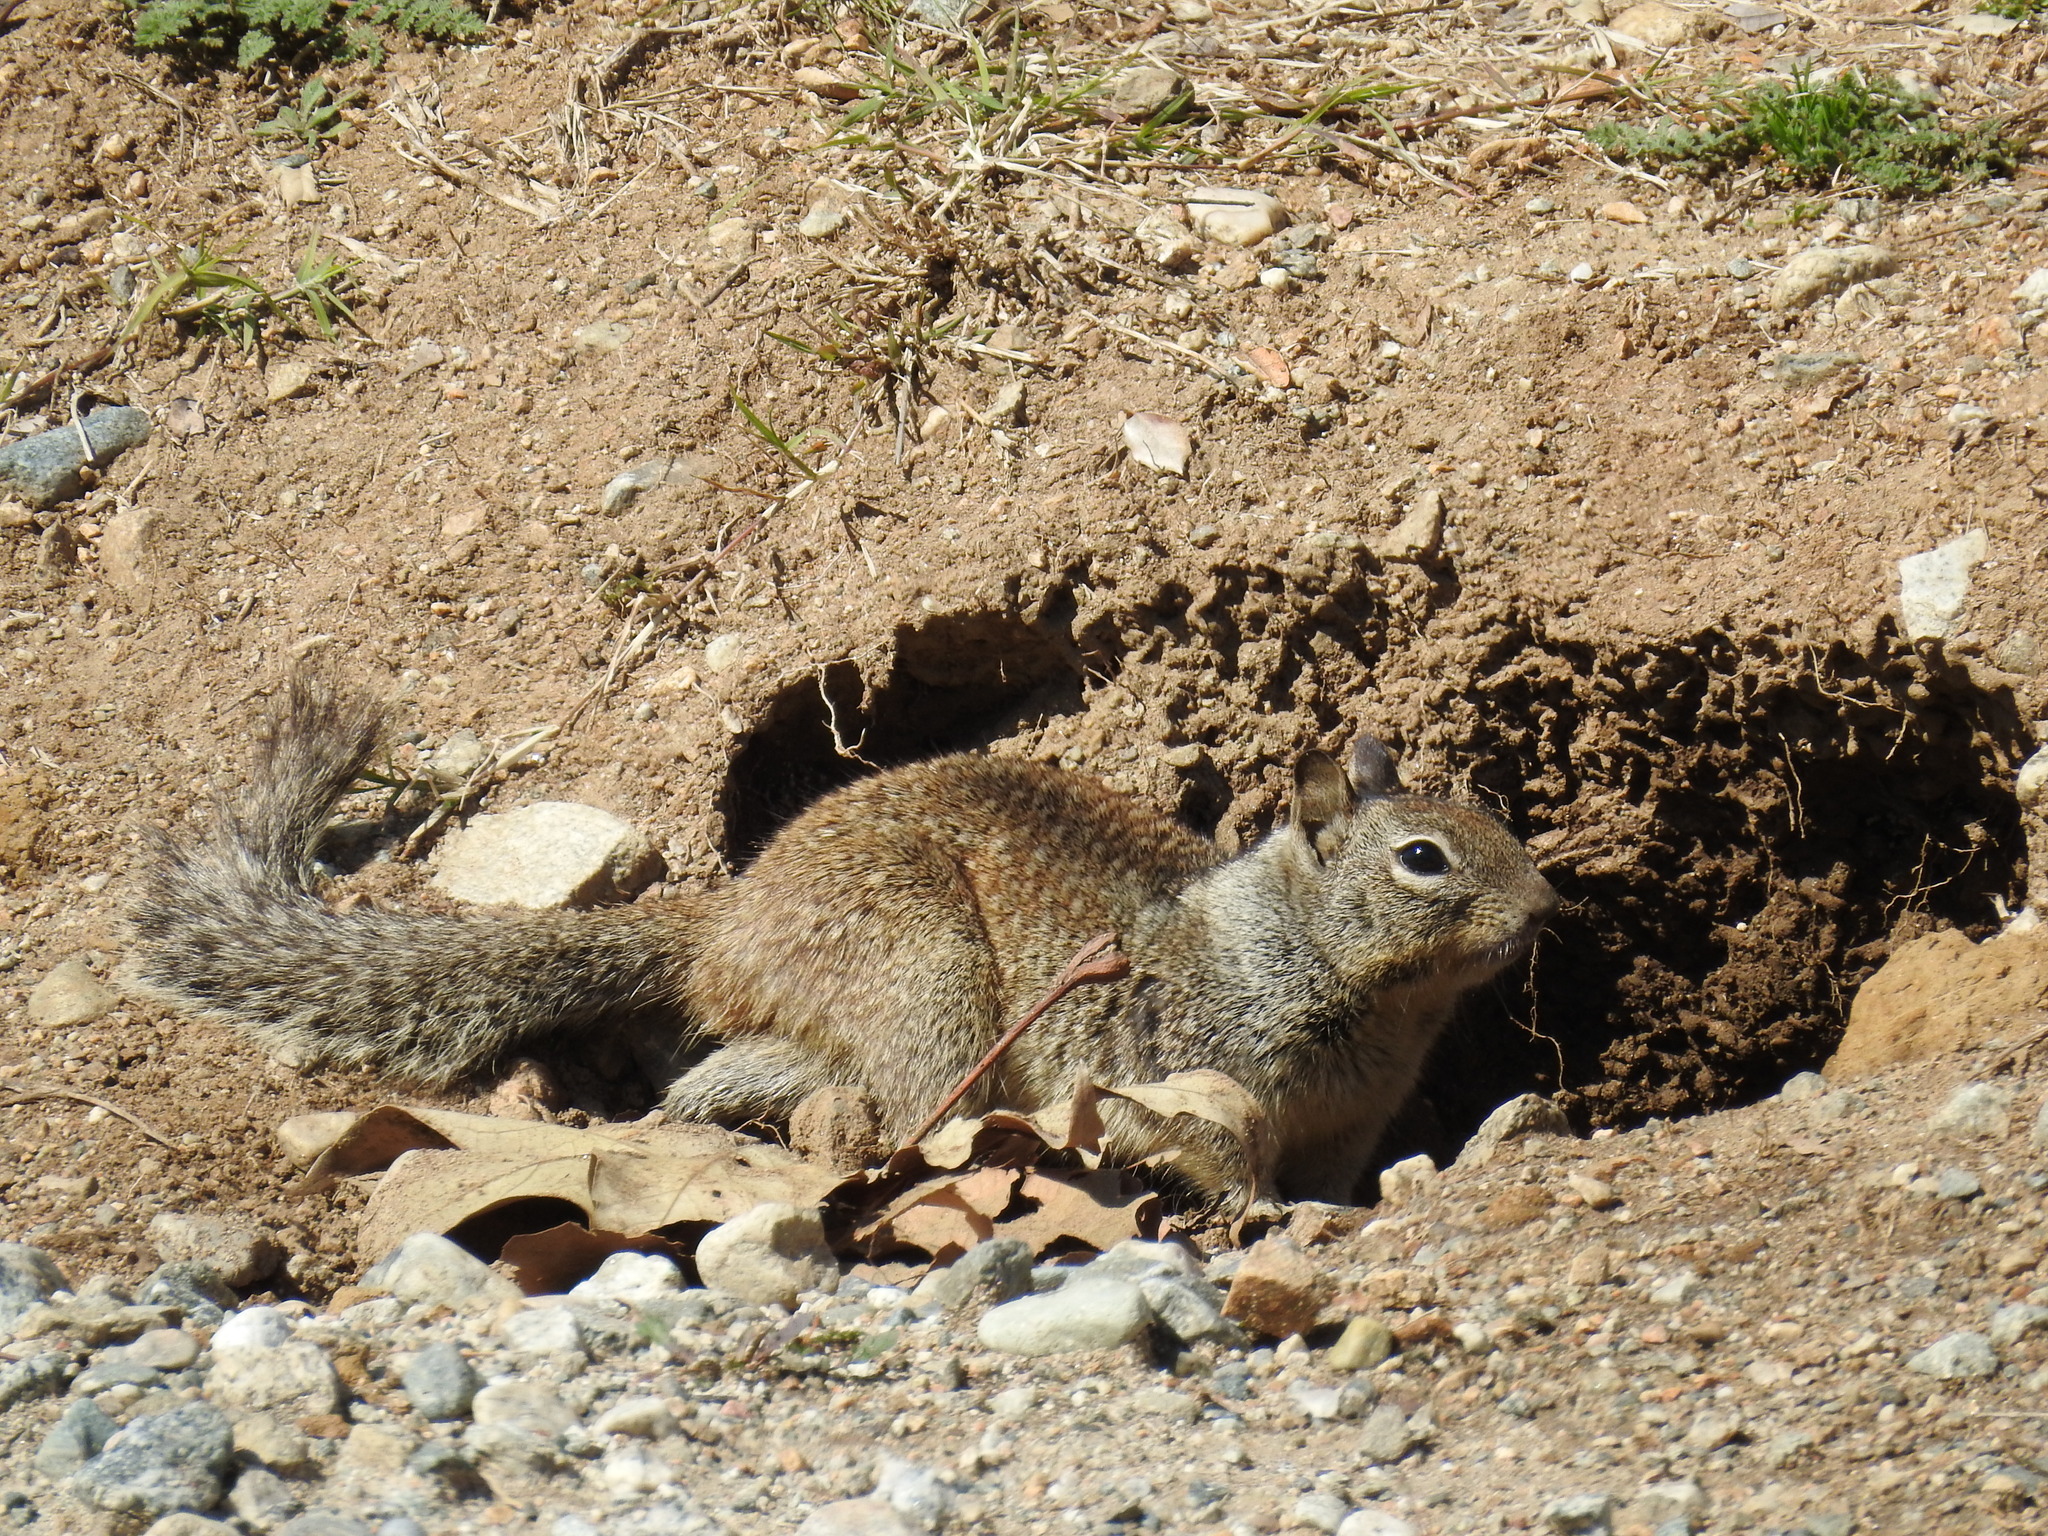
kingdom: Animalia
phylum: Chordata
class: Mammalia
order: Rodentia
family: Sciuridae
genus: Otospermophilus
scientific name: Otospermophilus beecheyi
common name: California ground squirrel
